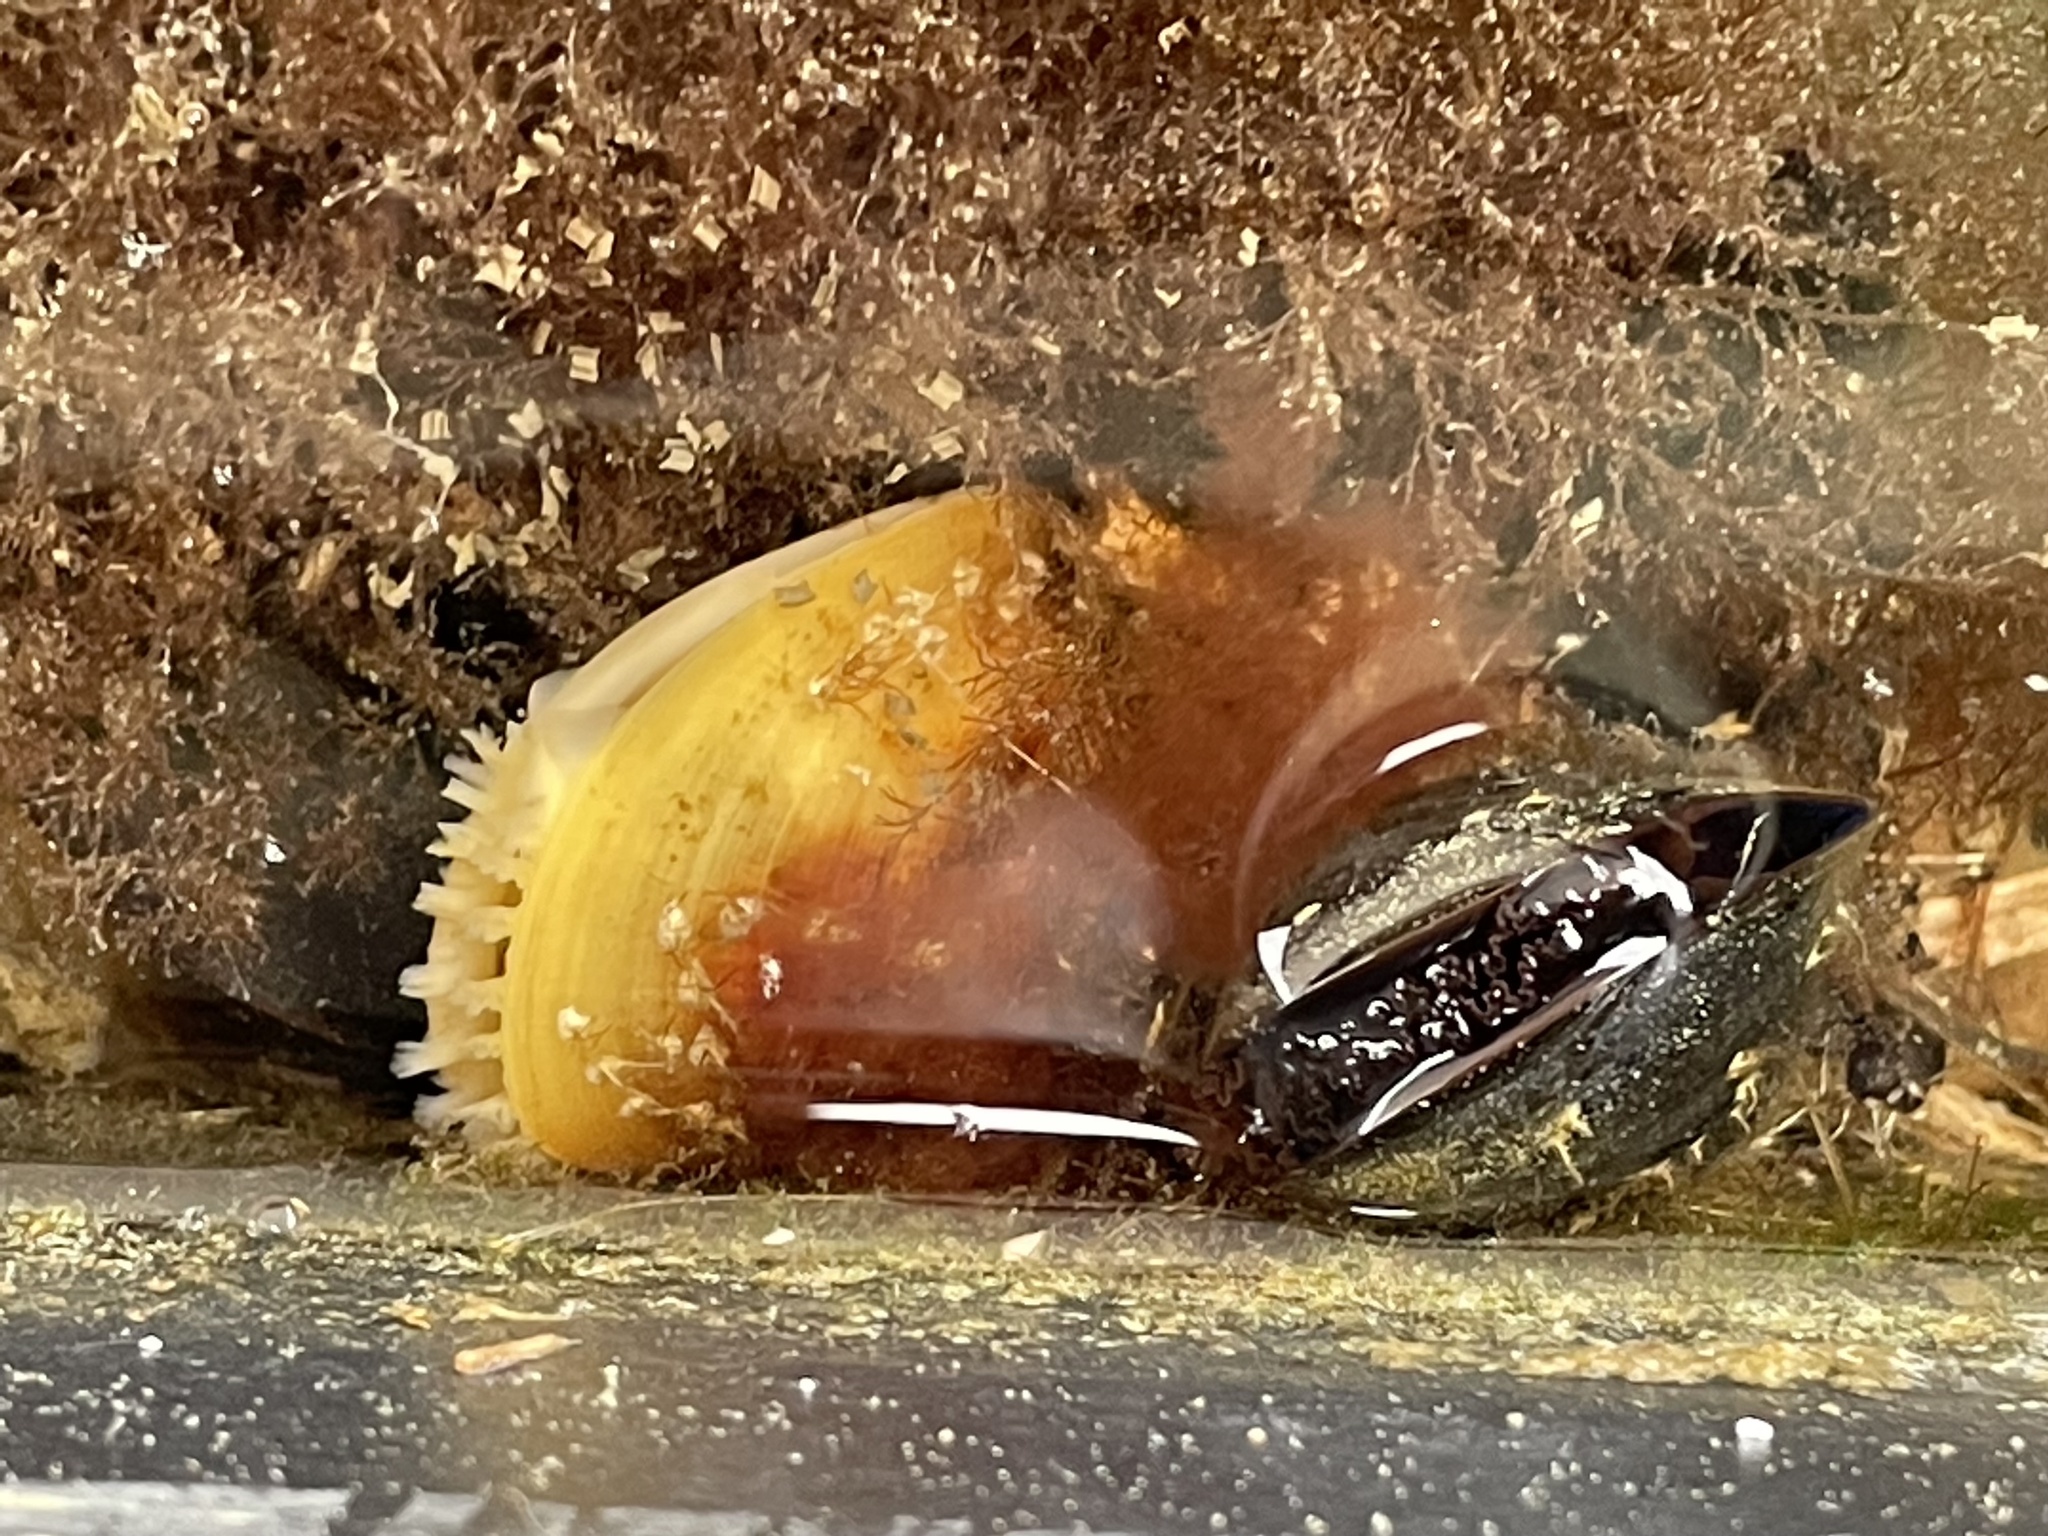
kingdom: Animalia
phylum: Mollusca
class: Bivalvia
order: Mytilida
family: Mytilidae
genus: Mytilus
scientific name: Mytilus edulis
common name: Blue mussel
